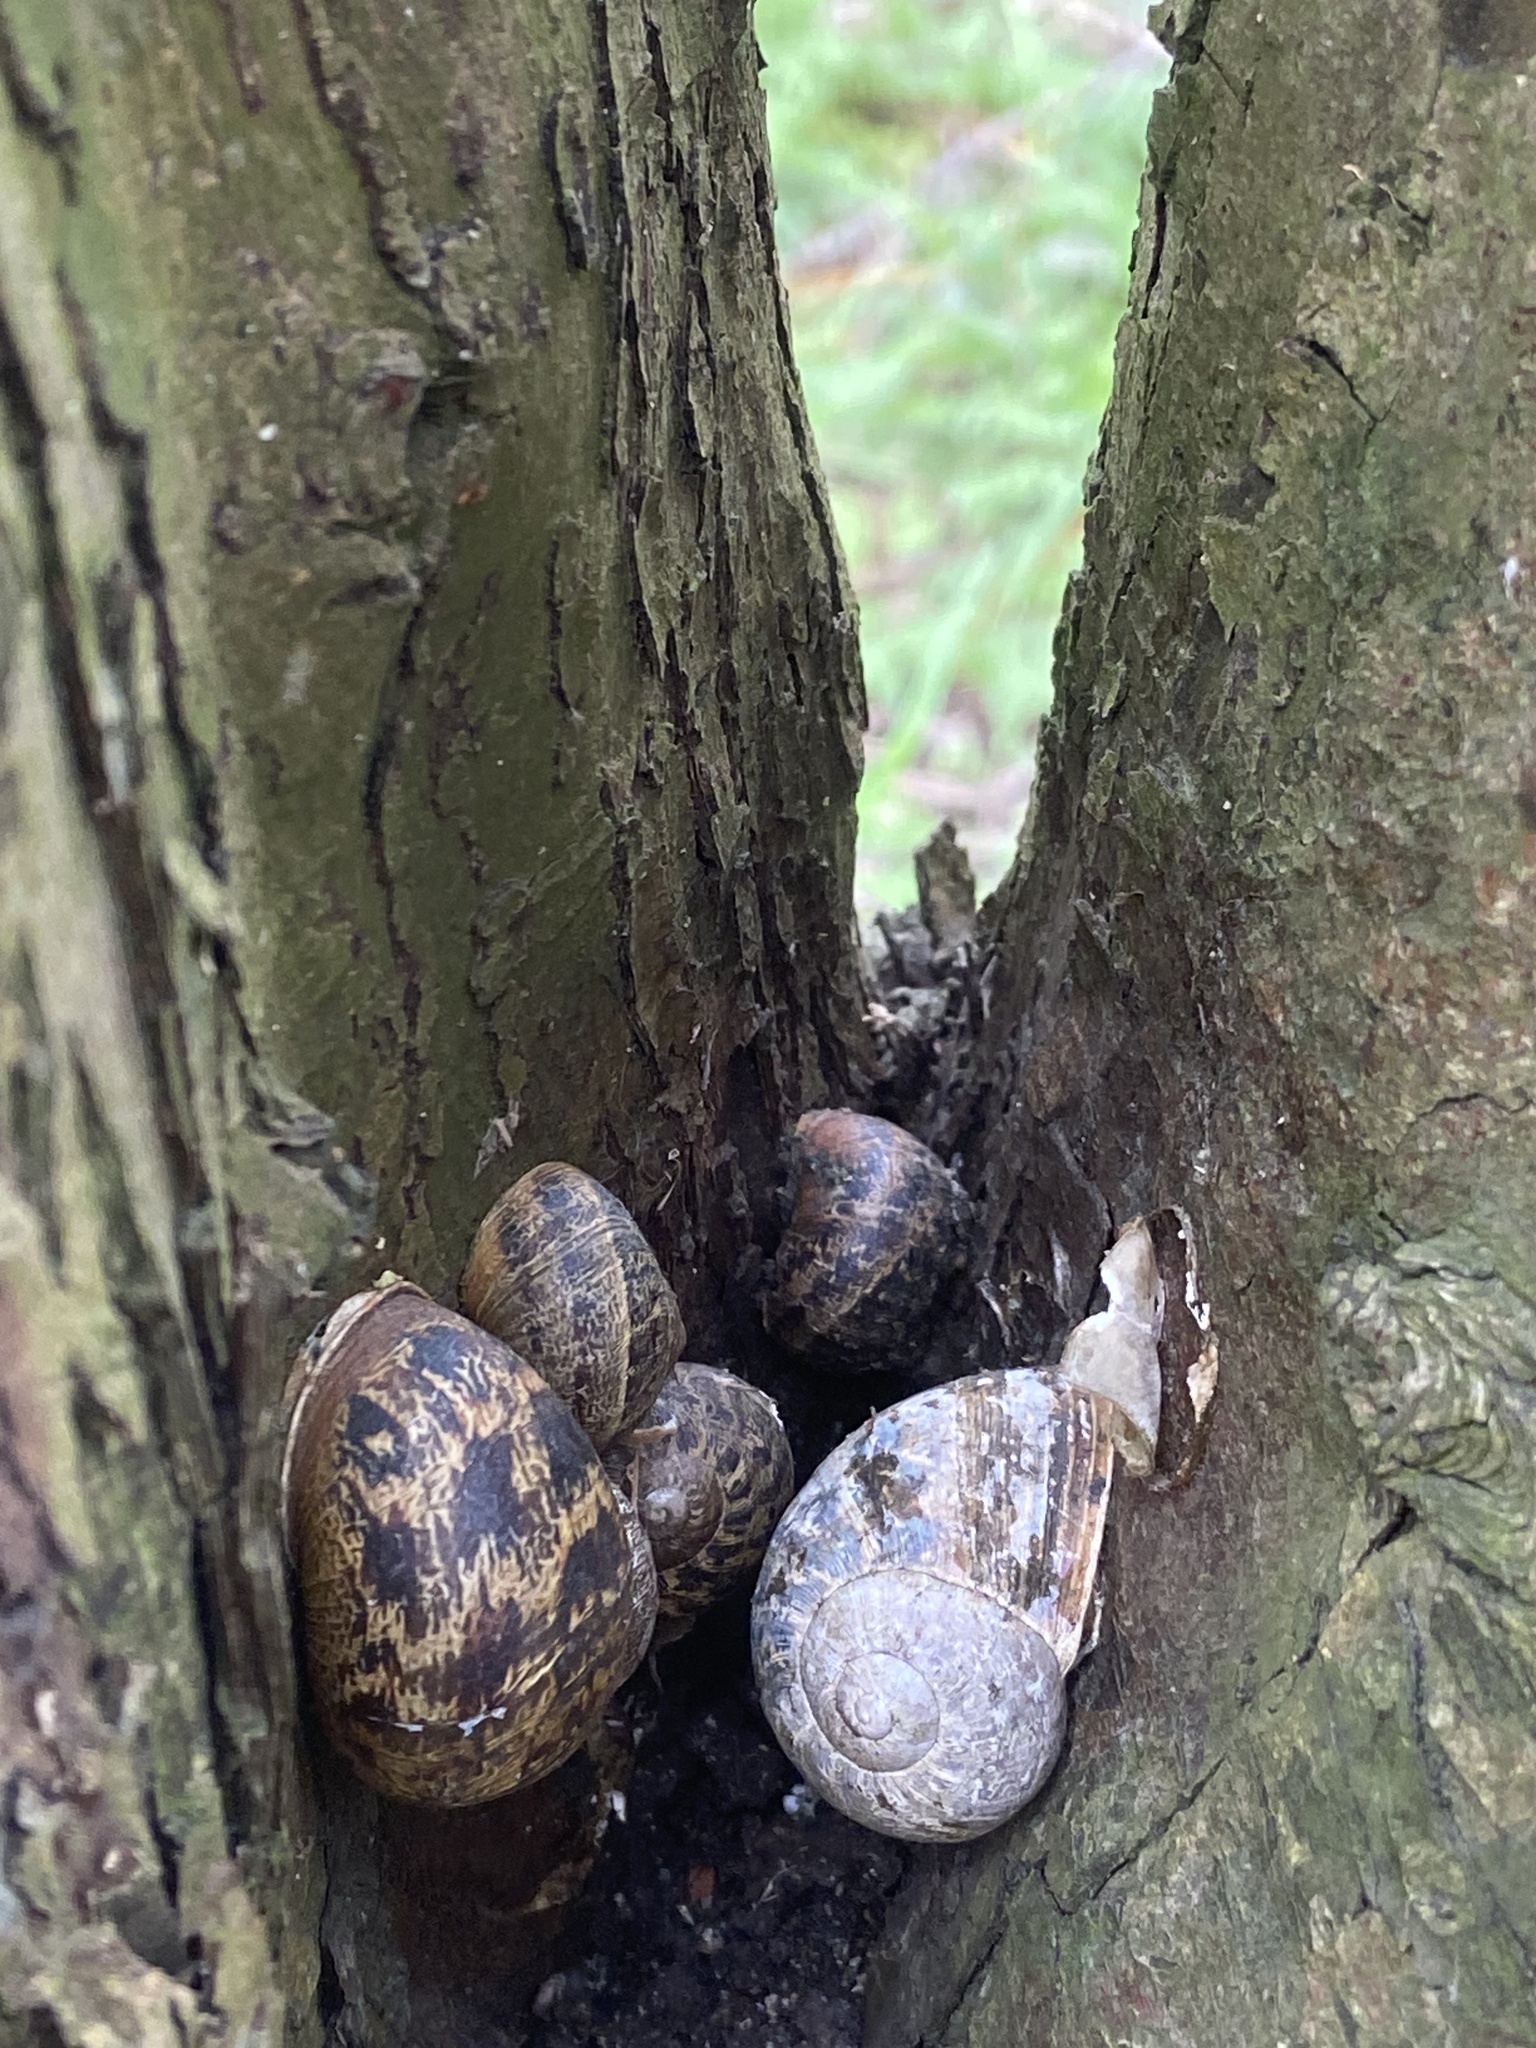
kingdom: Animalia
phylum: Mollusca
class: Gastropoda
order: Stylommatophora
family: Helicidae
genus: Cornu
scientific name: Cornu aspersum
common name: Brown garden snail
